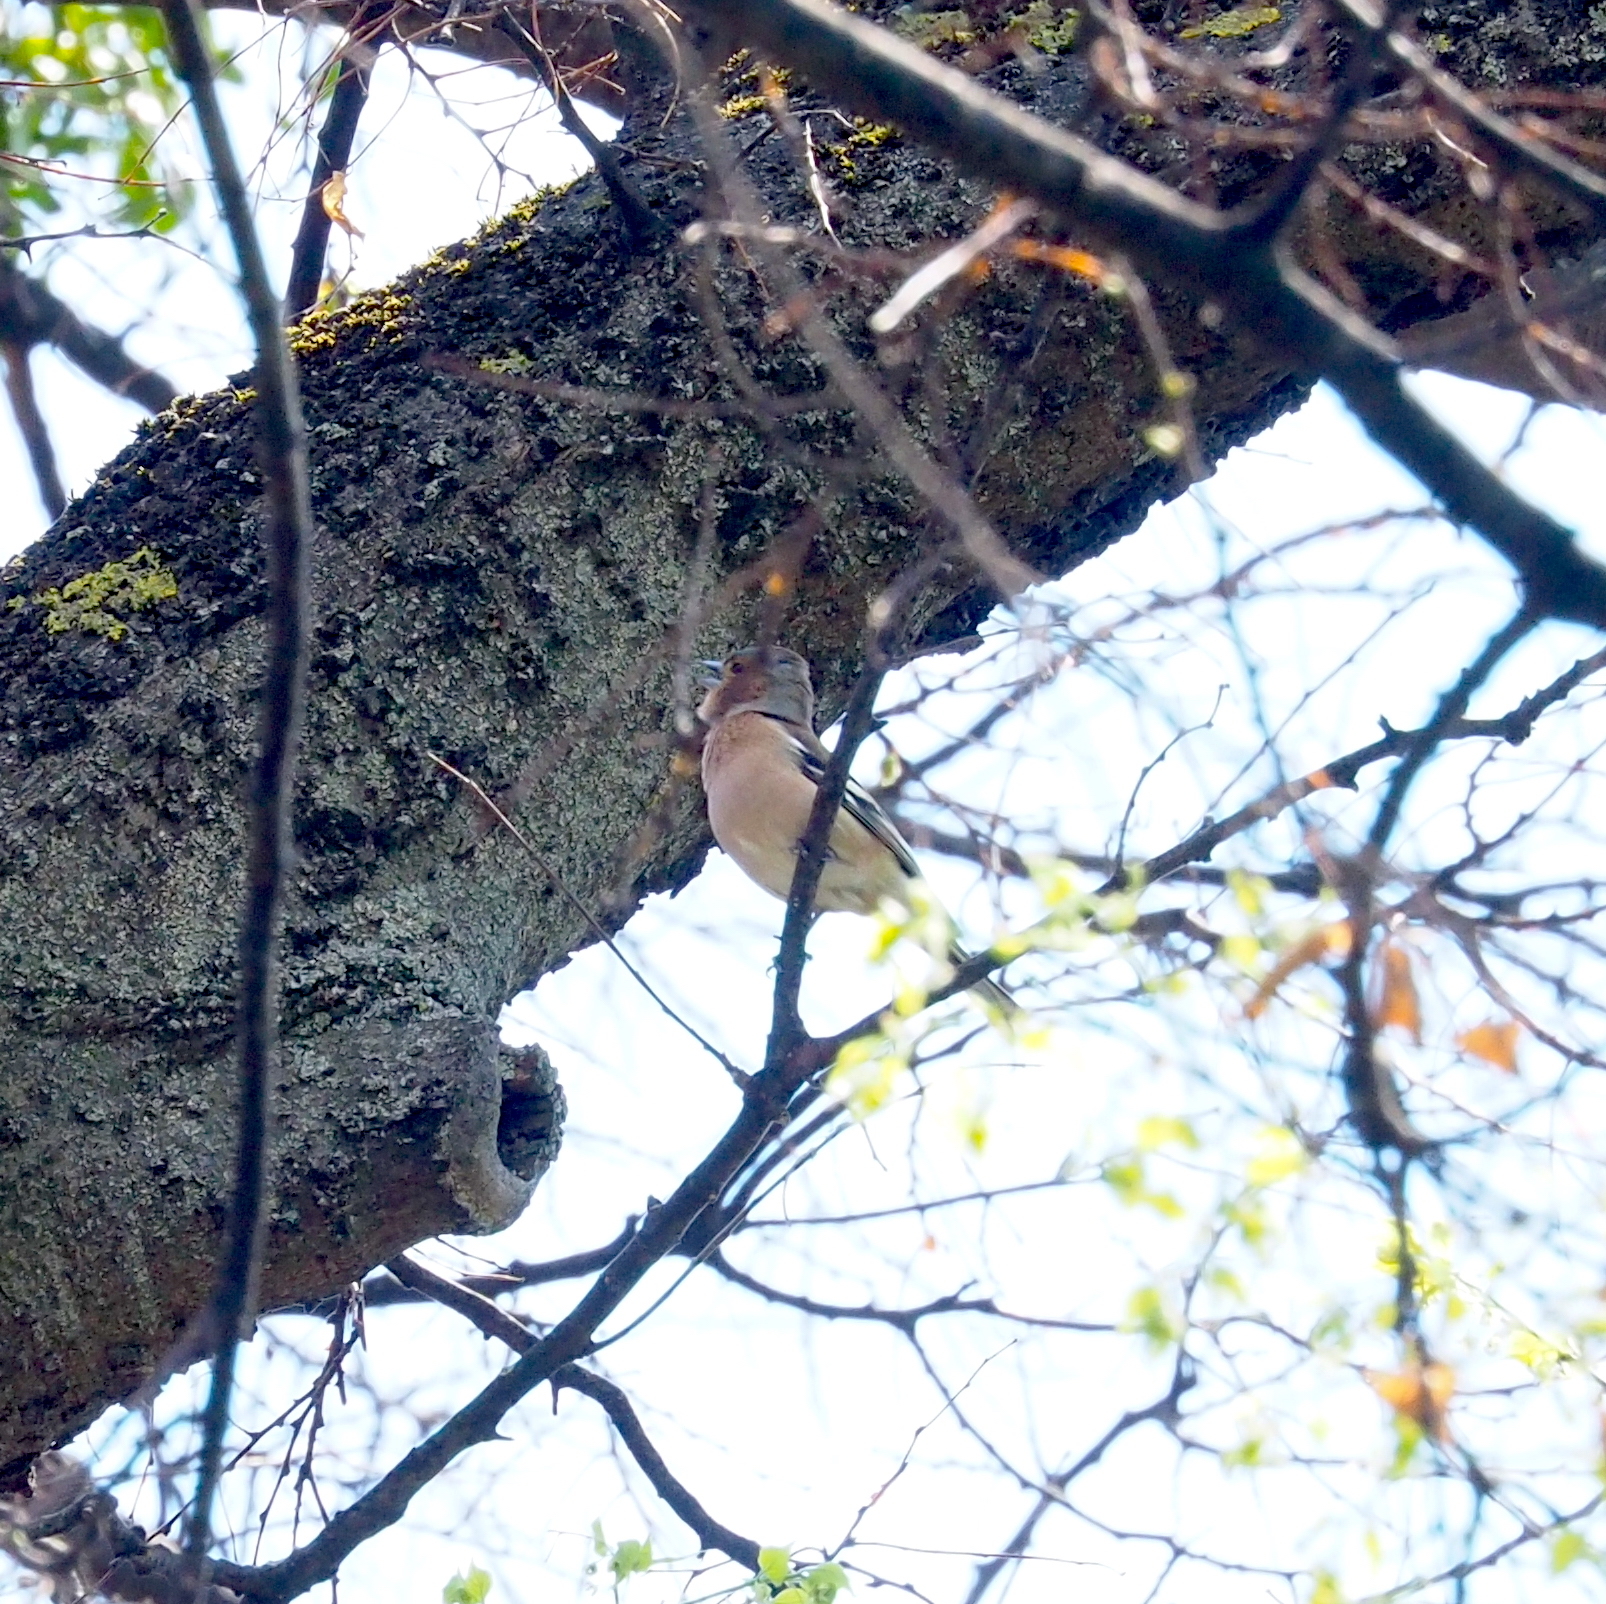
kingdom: Animalia
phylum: Chordata
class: Aves
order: Passeriformes
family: Fringillidae
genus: Fringilla
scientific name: Fringilla coelebs
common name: Common chaffinch
